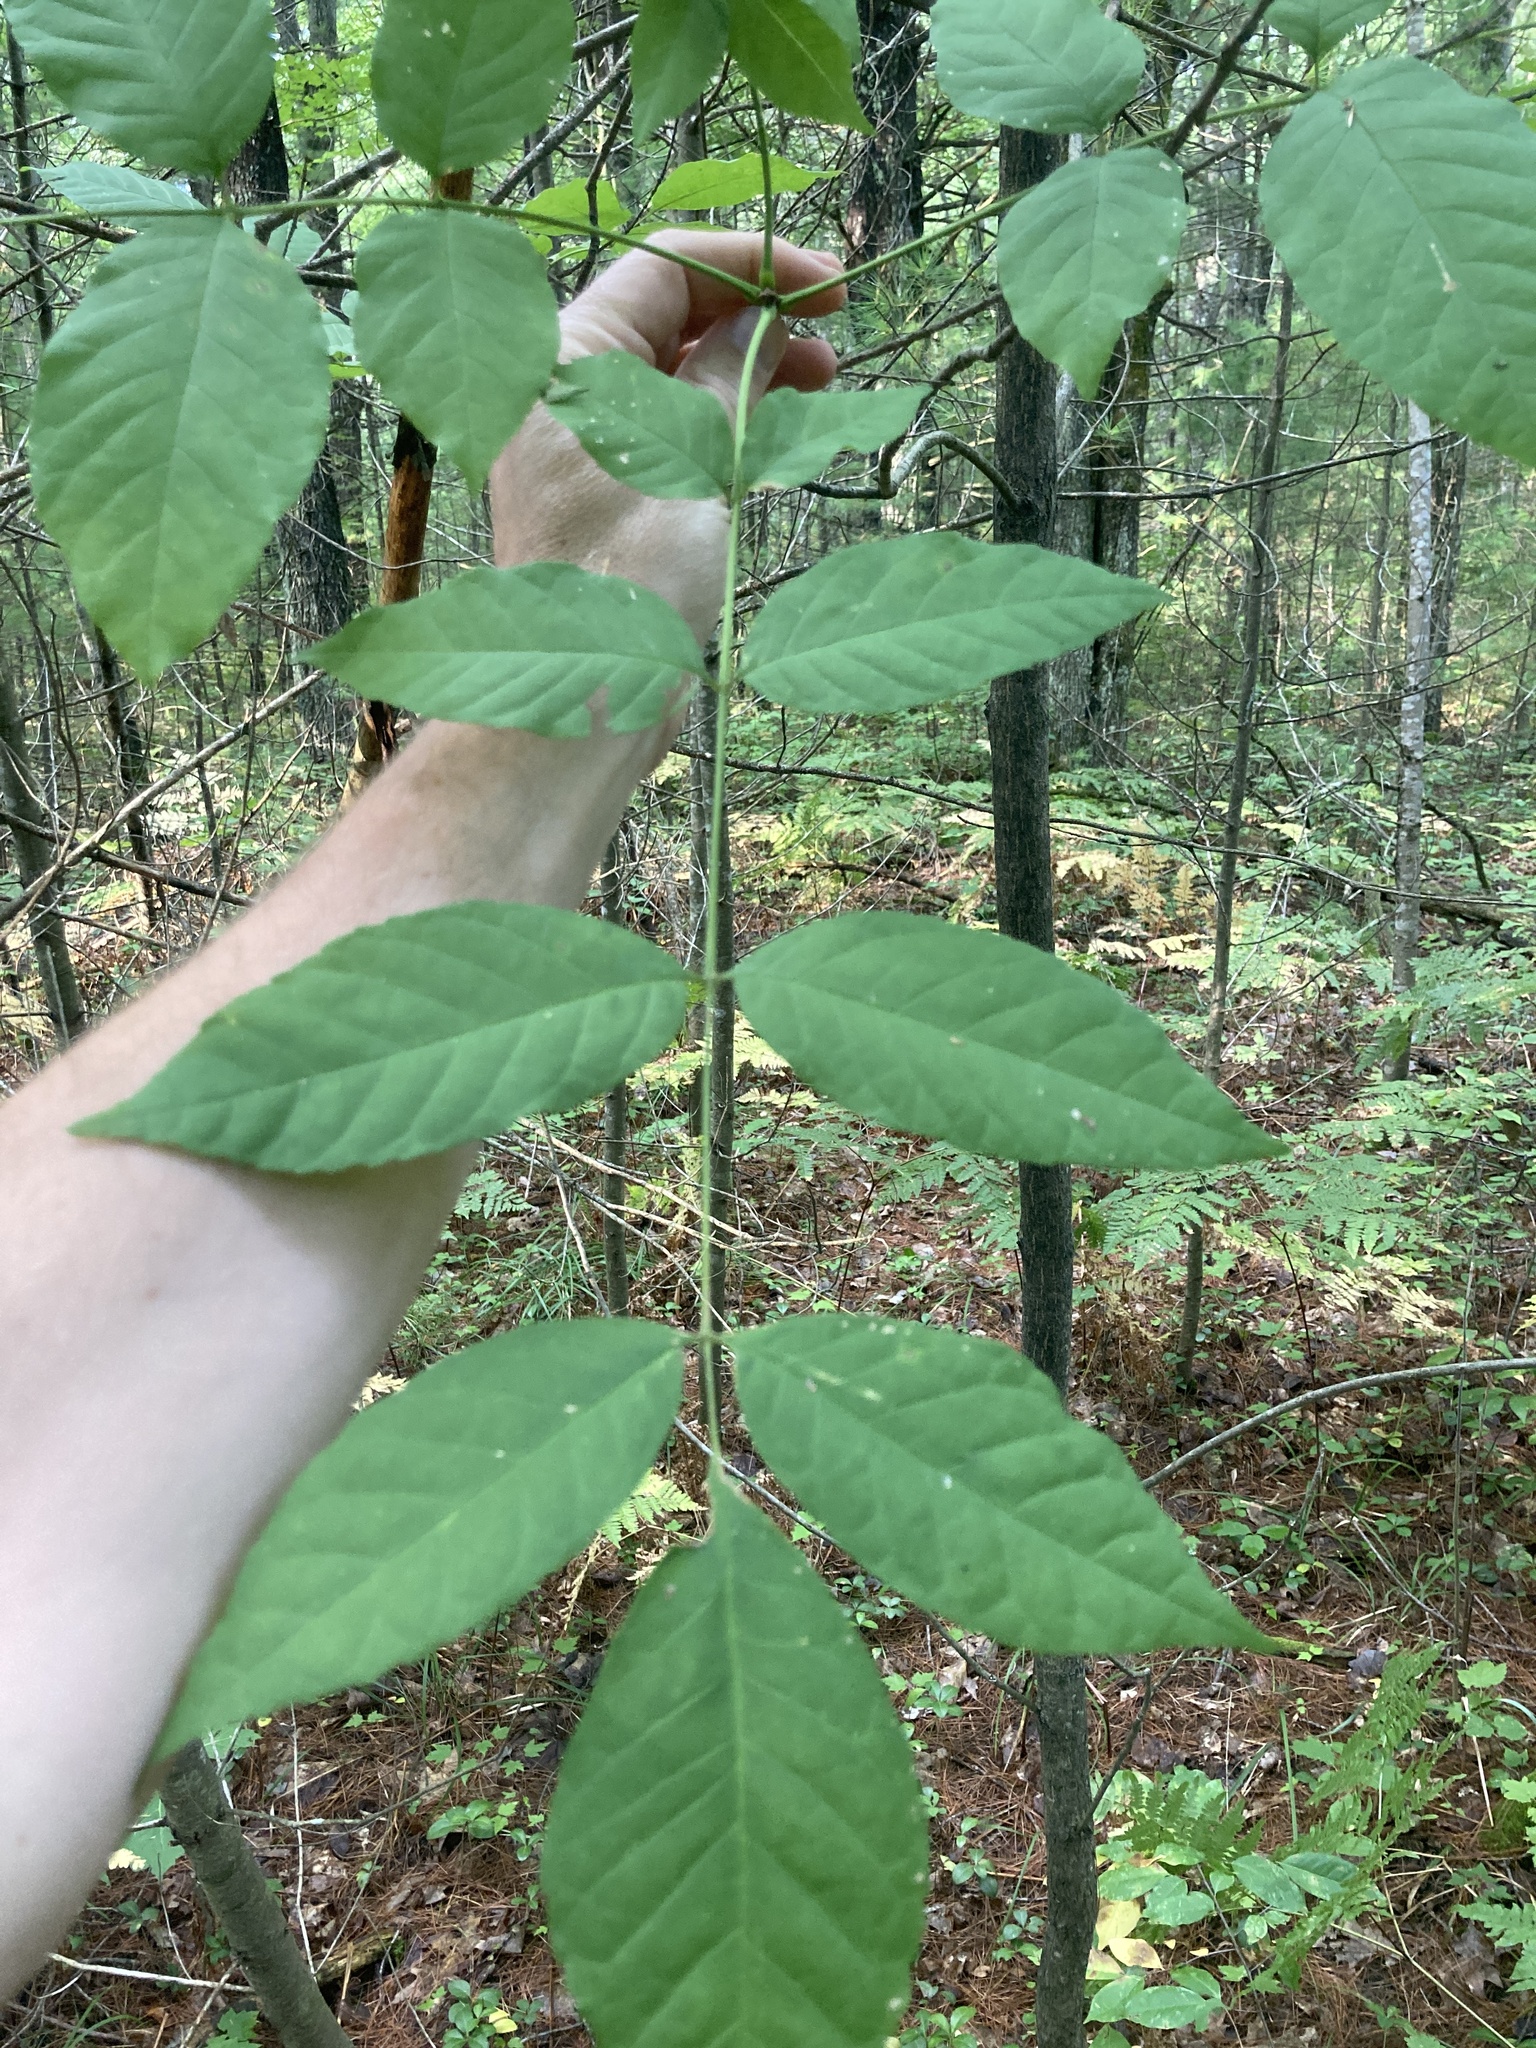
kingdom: Plantae
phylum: Tracheophyta
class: Magnoliopsida
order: Lamiales
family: Oleaceae
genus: Fraxinus
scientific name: Fraxinus pennsylvanica
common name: Green ash
